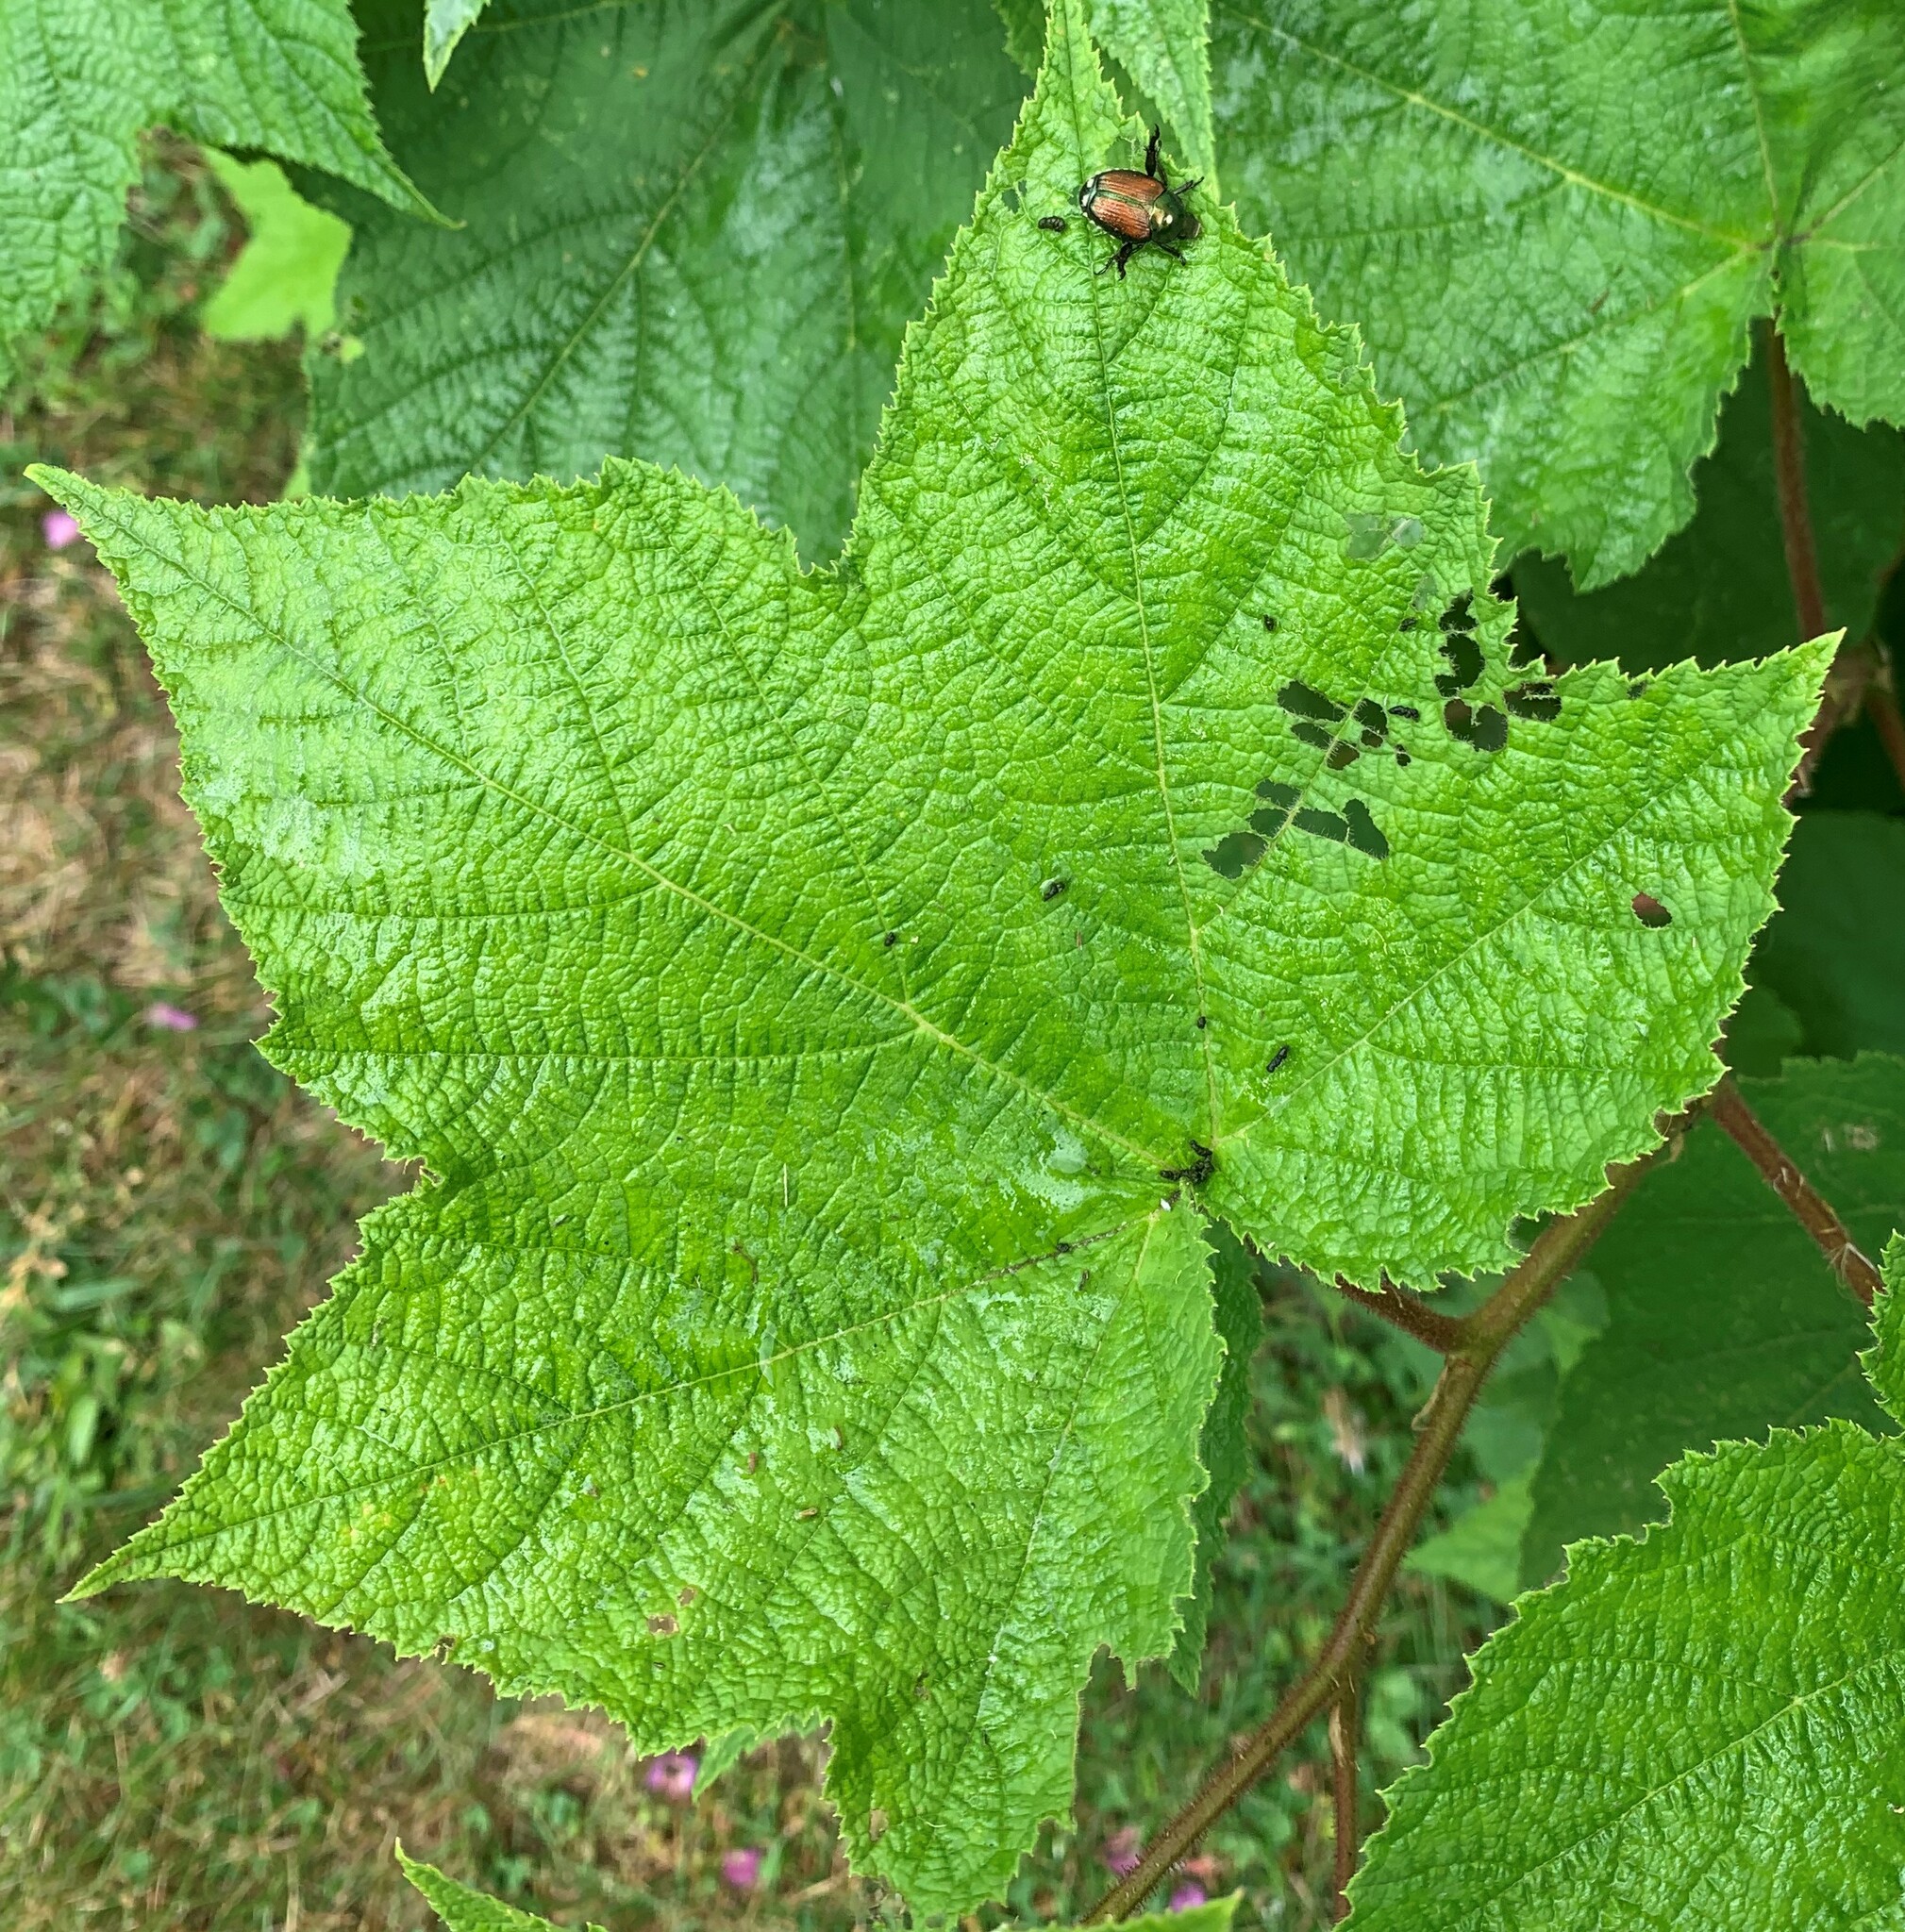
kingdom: Animalia
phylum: Arthropoda
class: Insecta
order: Coleoptera
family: Scarabaeidae
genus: Popillia
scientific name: Popillia japonica
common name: Japanese beetle
